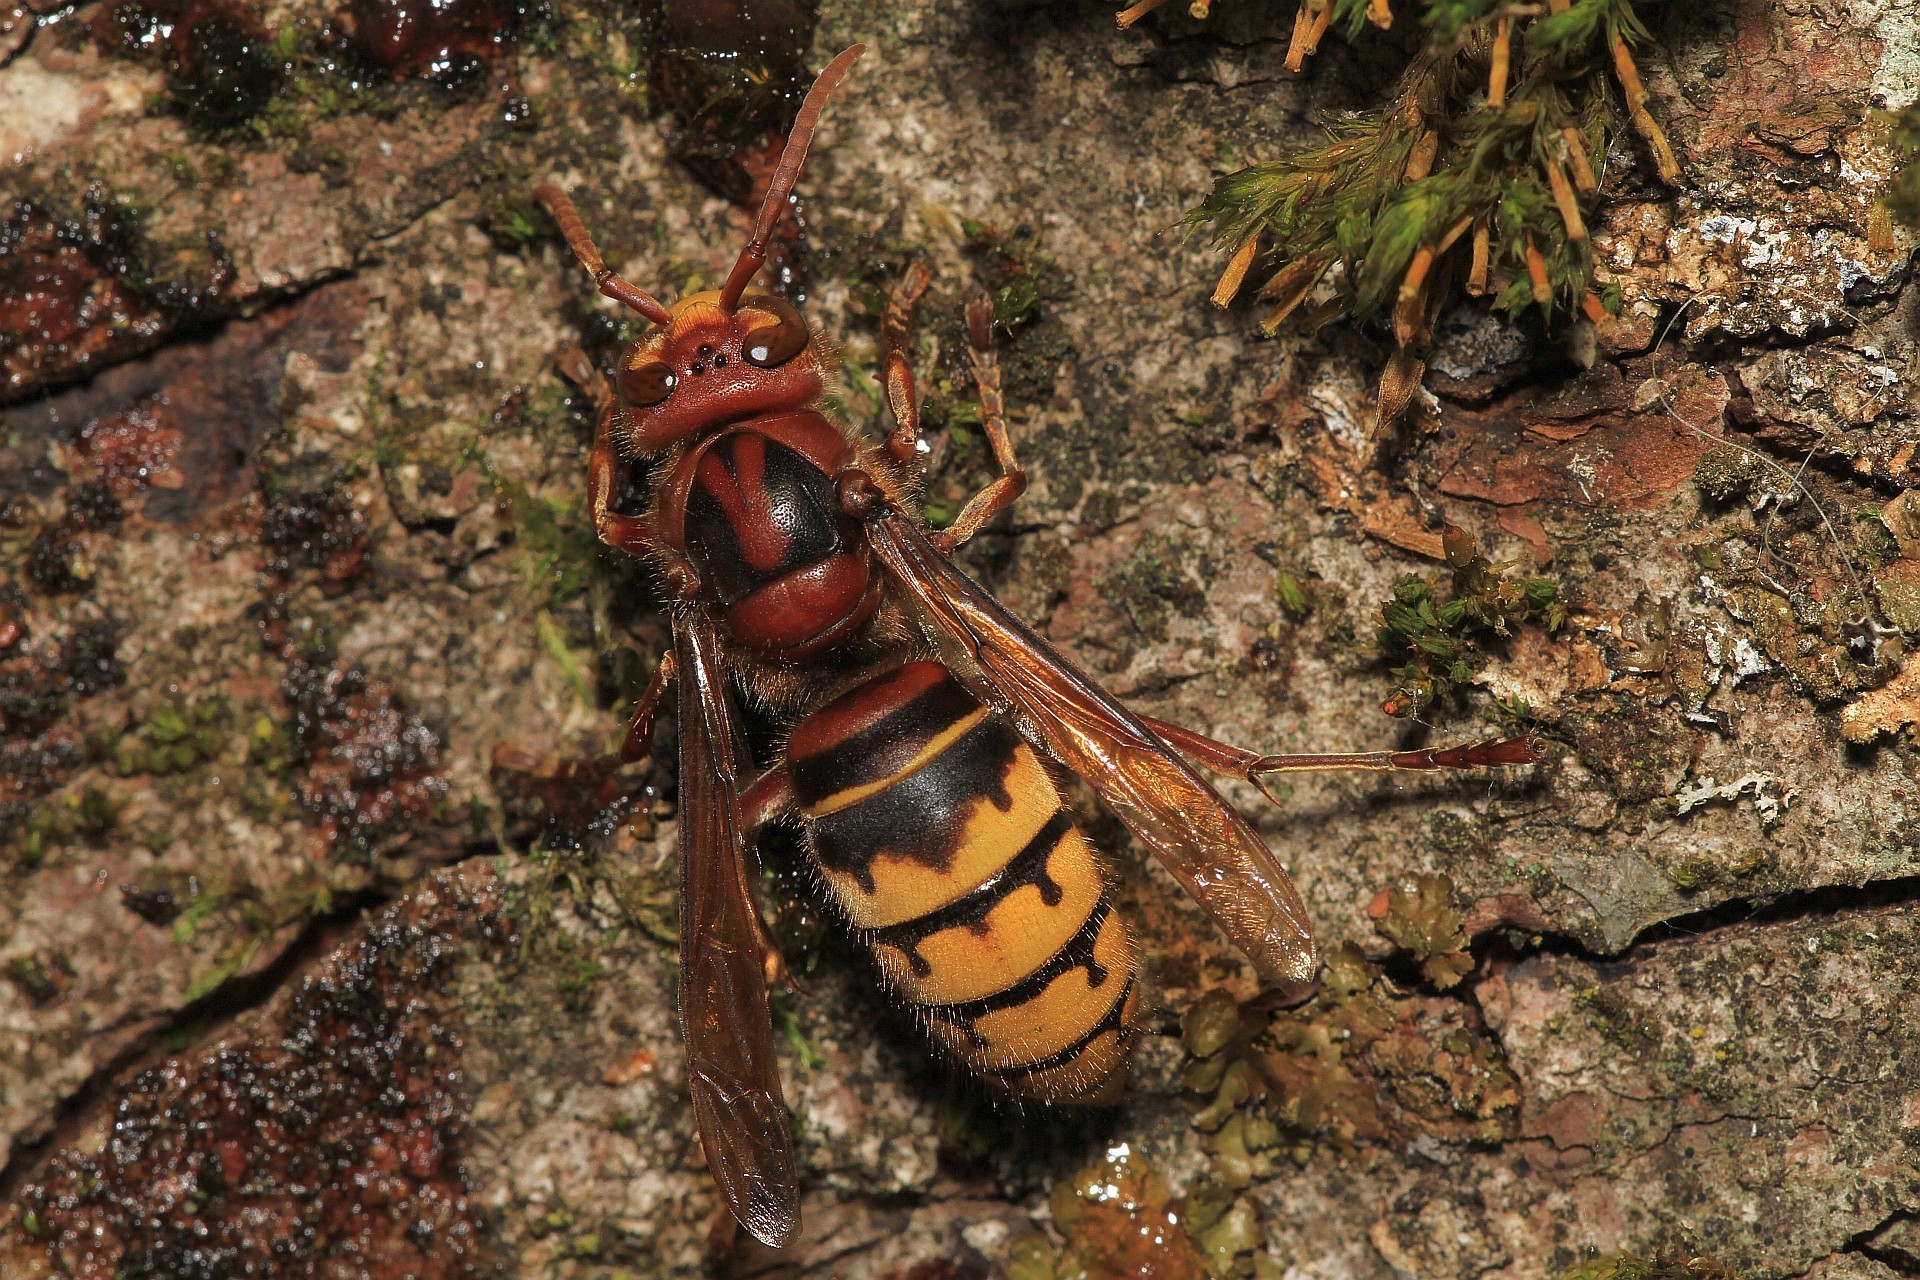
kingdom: Animalia
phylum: Arthropoda
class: Insecta
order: Hymenoptera
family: Vespidae
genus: Vespa
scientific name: Vespa crabro
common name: Hornet
